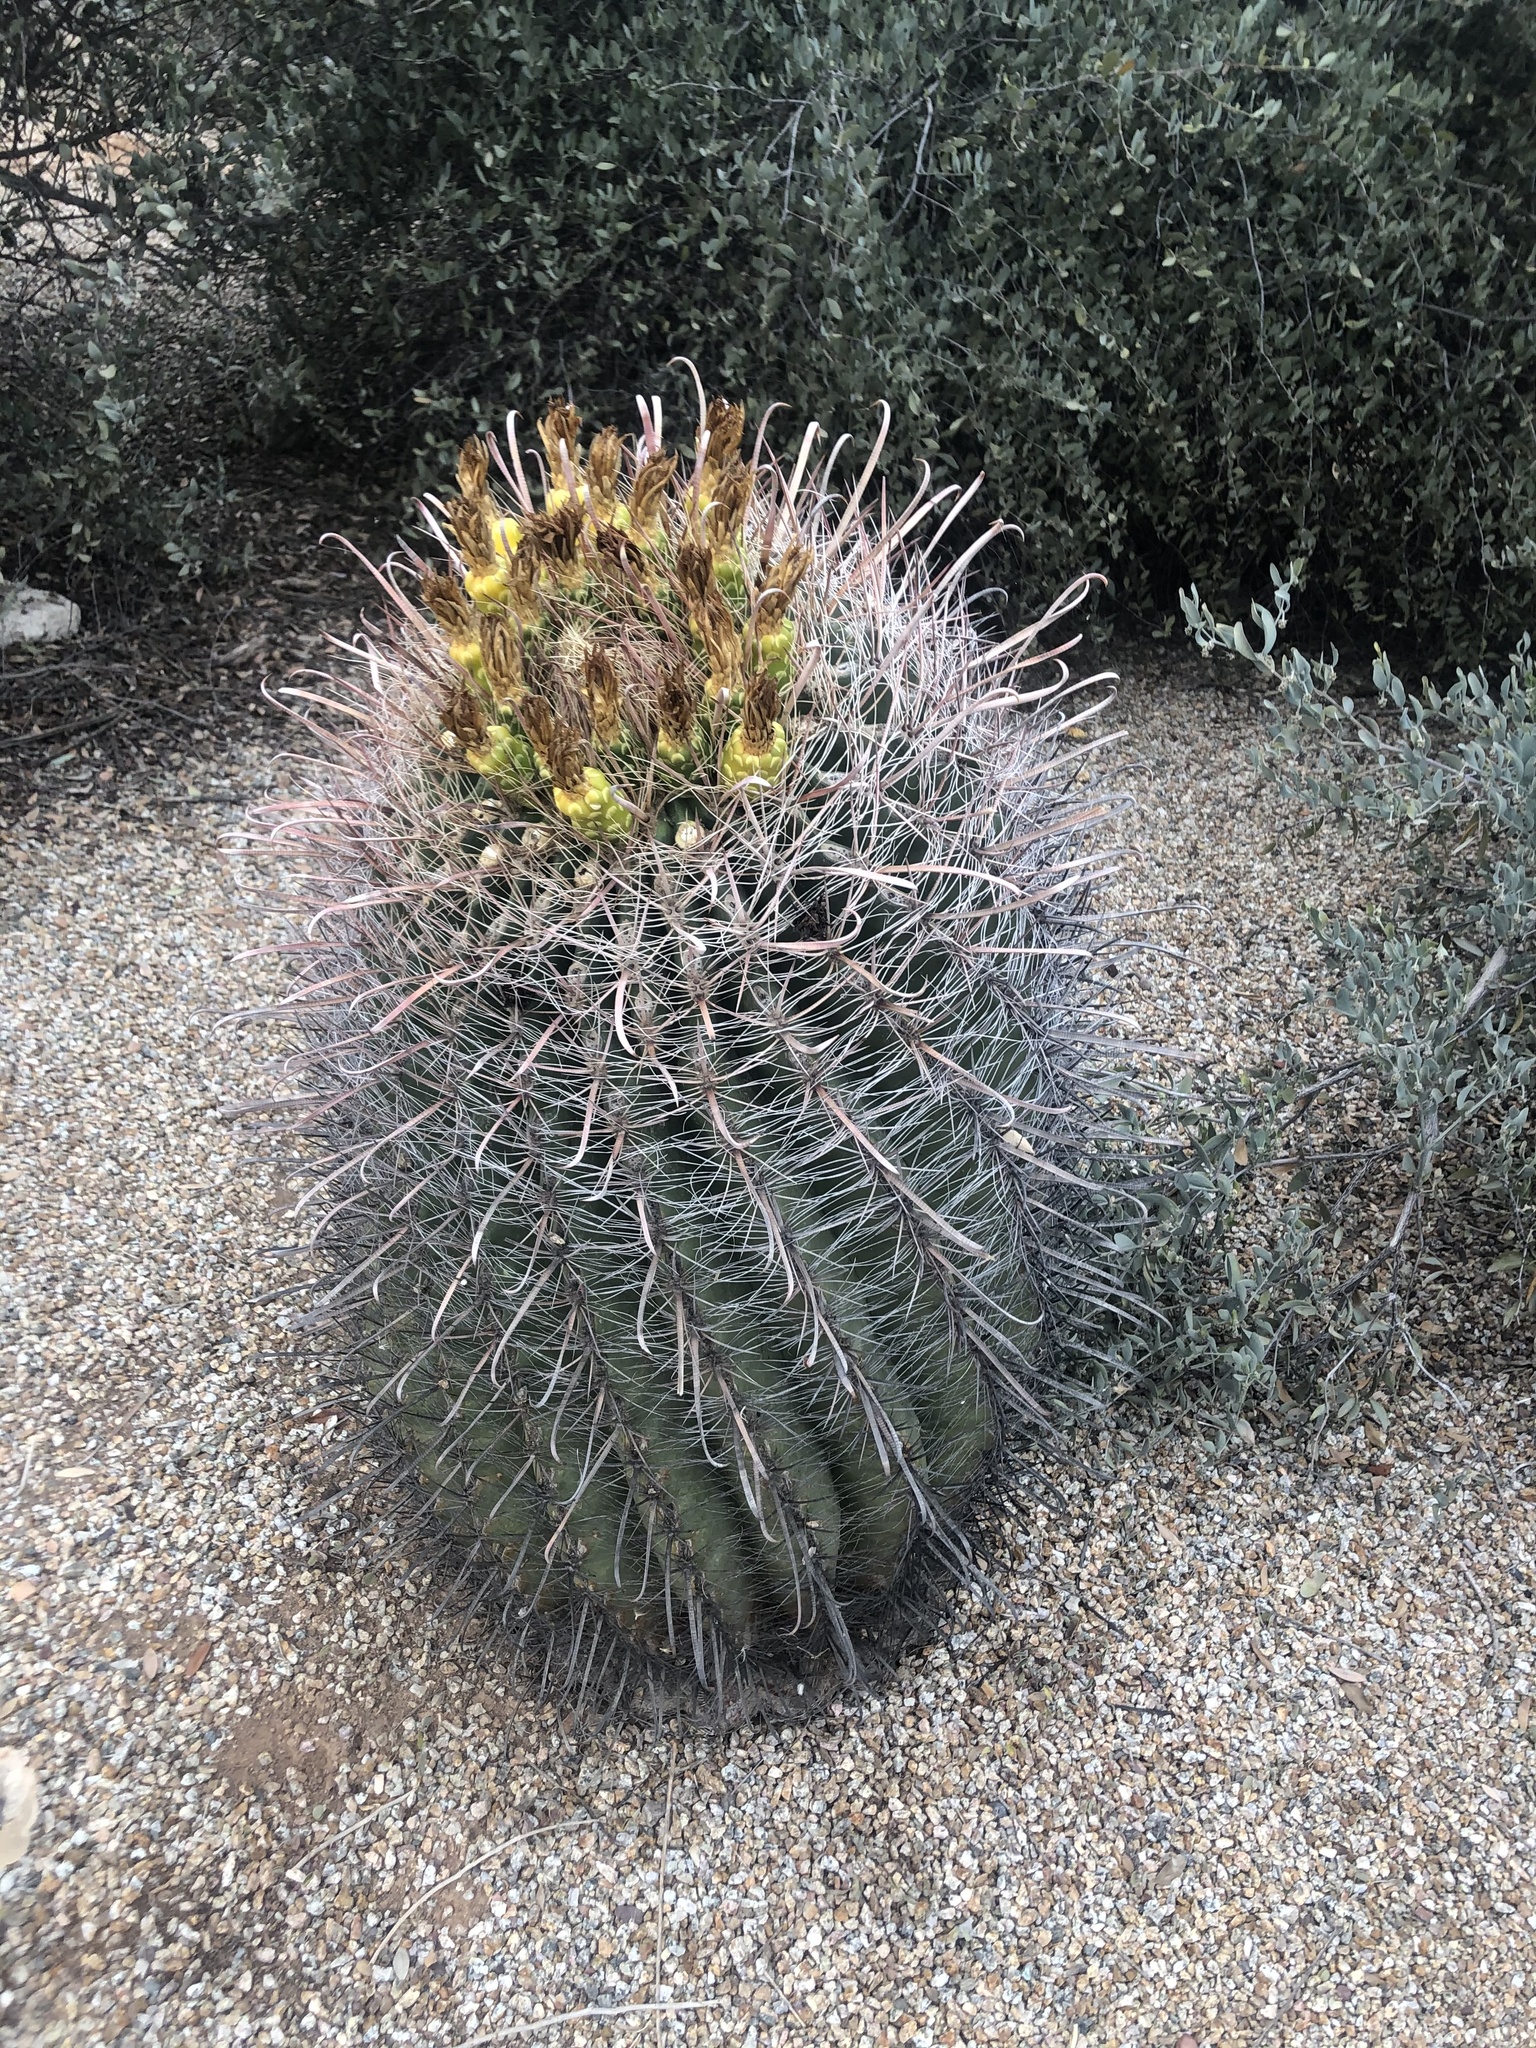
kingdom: Plantae
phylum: Tracheophyta
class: Magnoliopsida
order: Caryophyllales
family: Cactaceae
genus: Ferocactus
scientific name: Ferocactus wislizeni
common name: Candy barrel cactus
